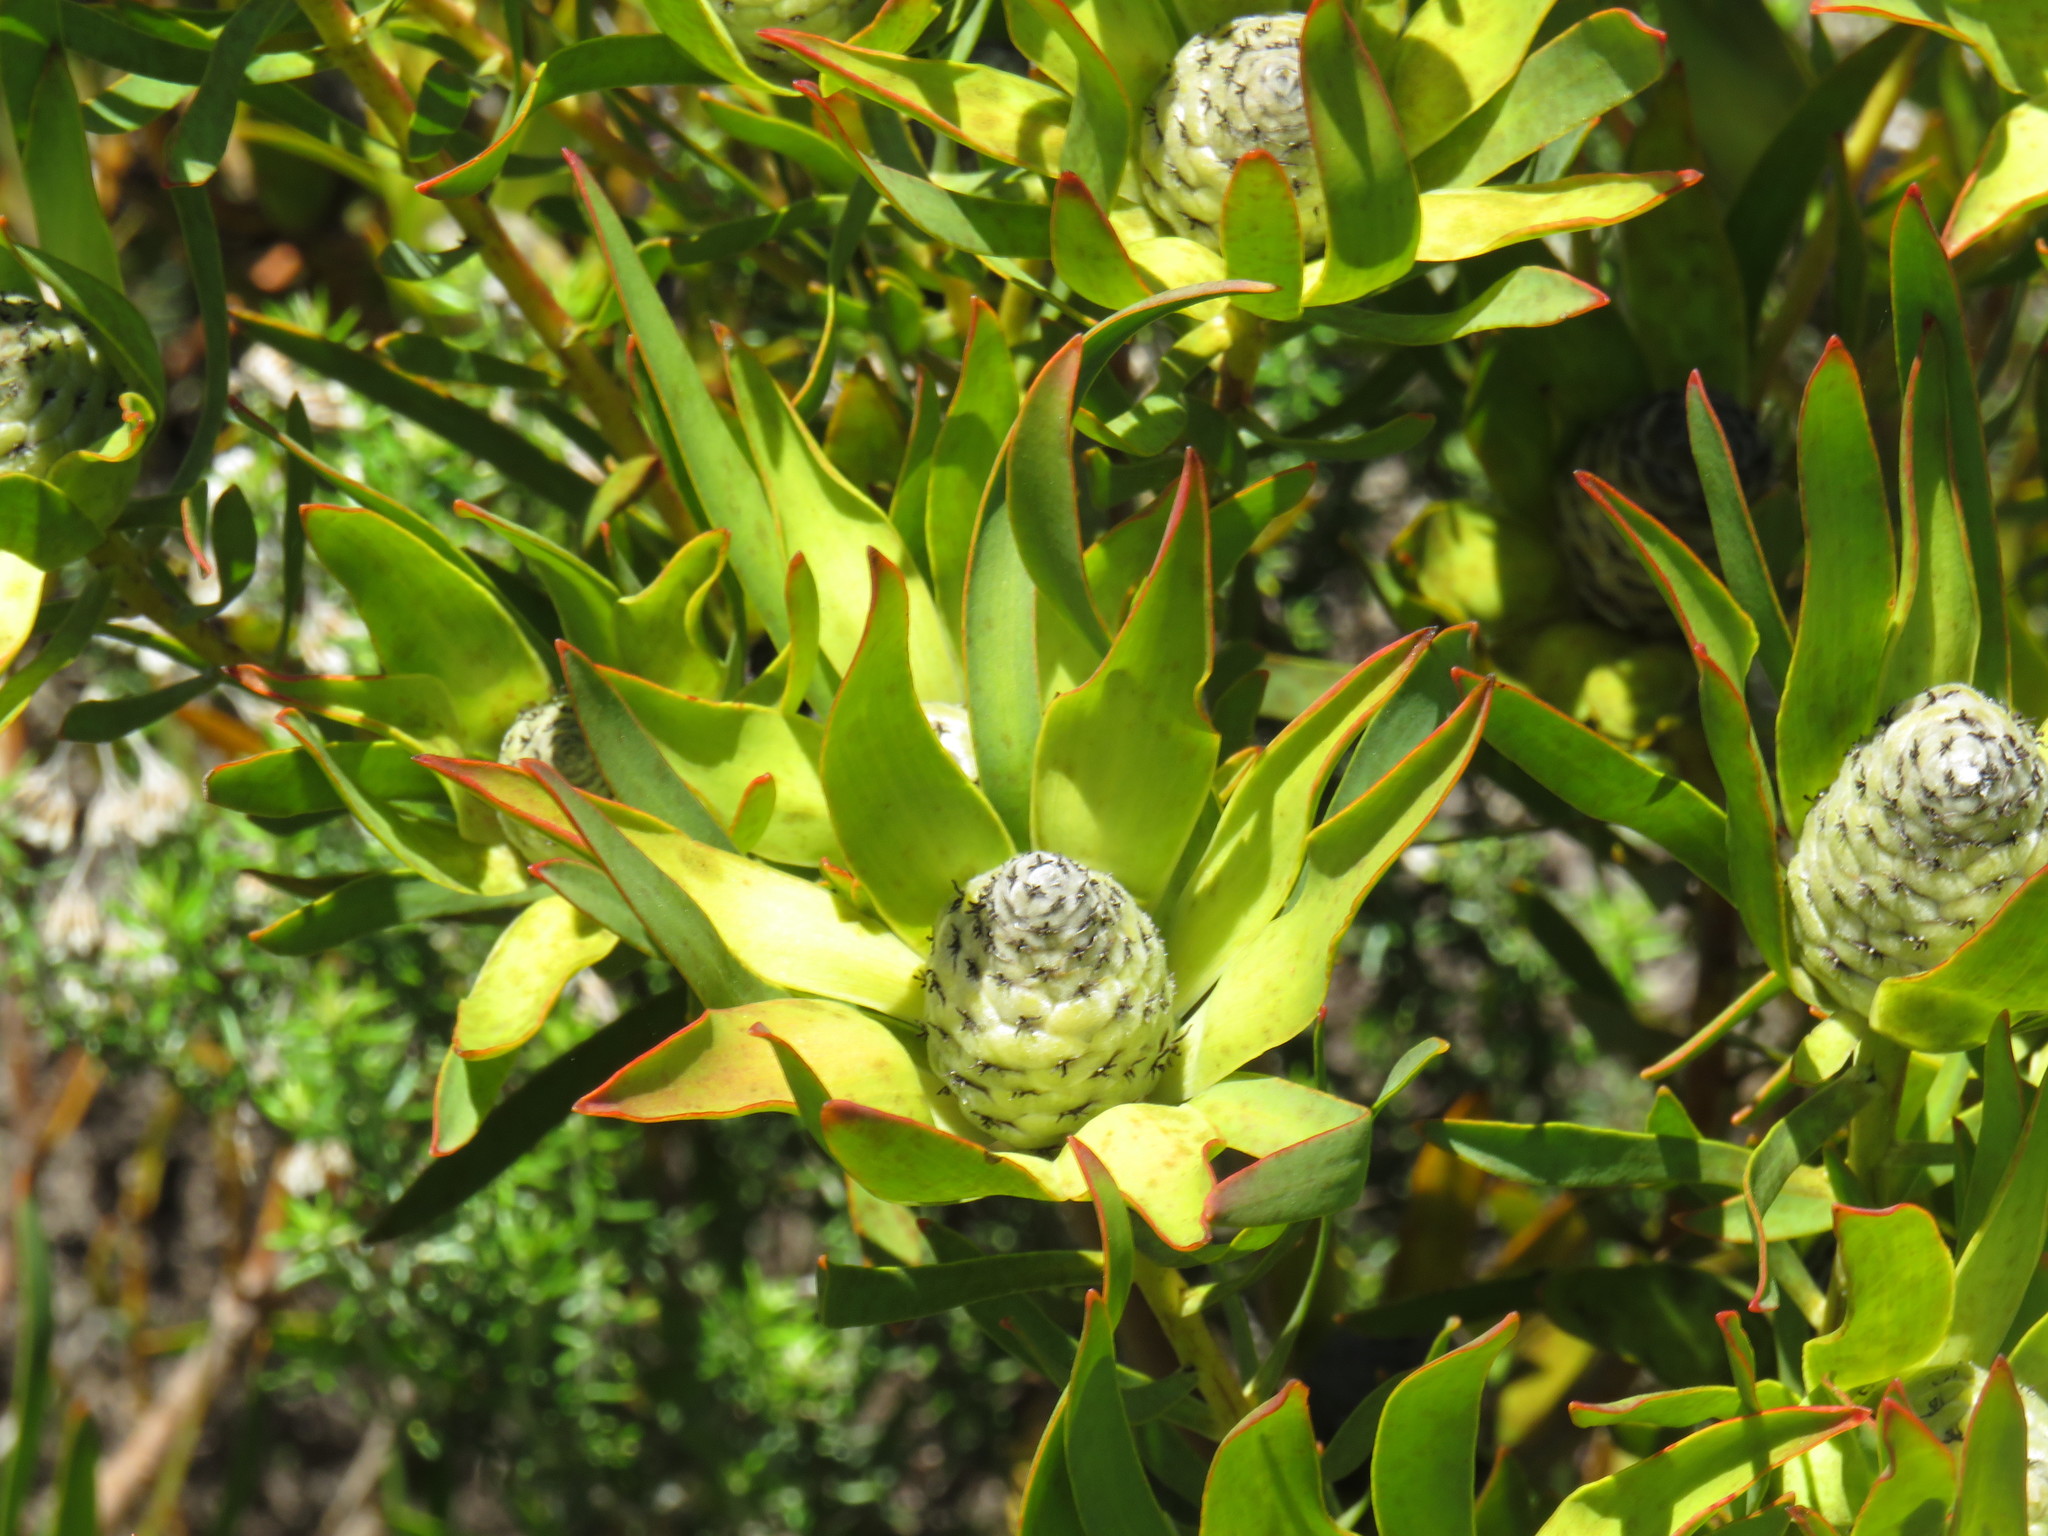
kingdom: Plantae
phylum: Tracheophyta
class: Magnoliopsida
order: Proteales
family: Proteaceae
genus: Leucadendron
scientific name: Leucadendron salignum
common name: Common sunshine conebush
